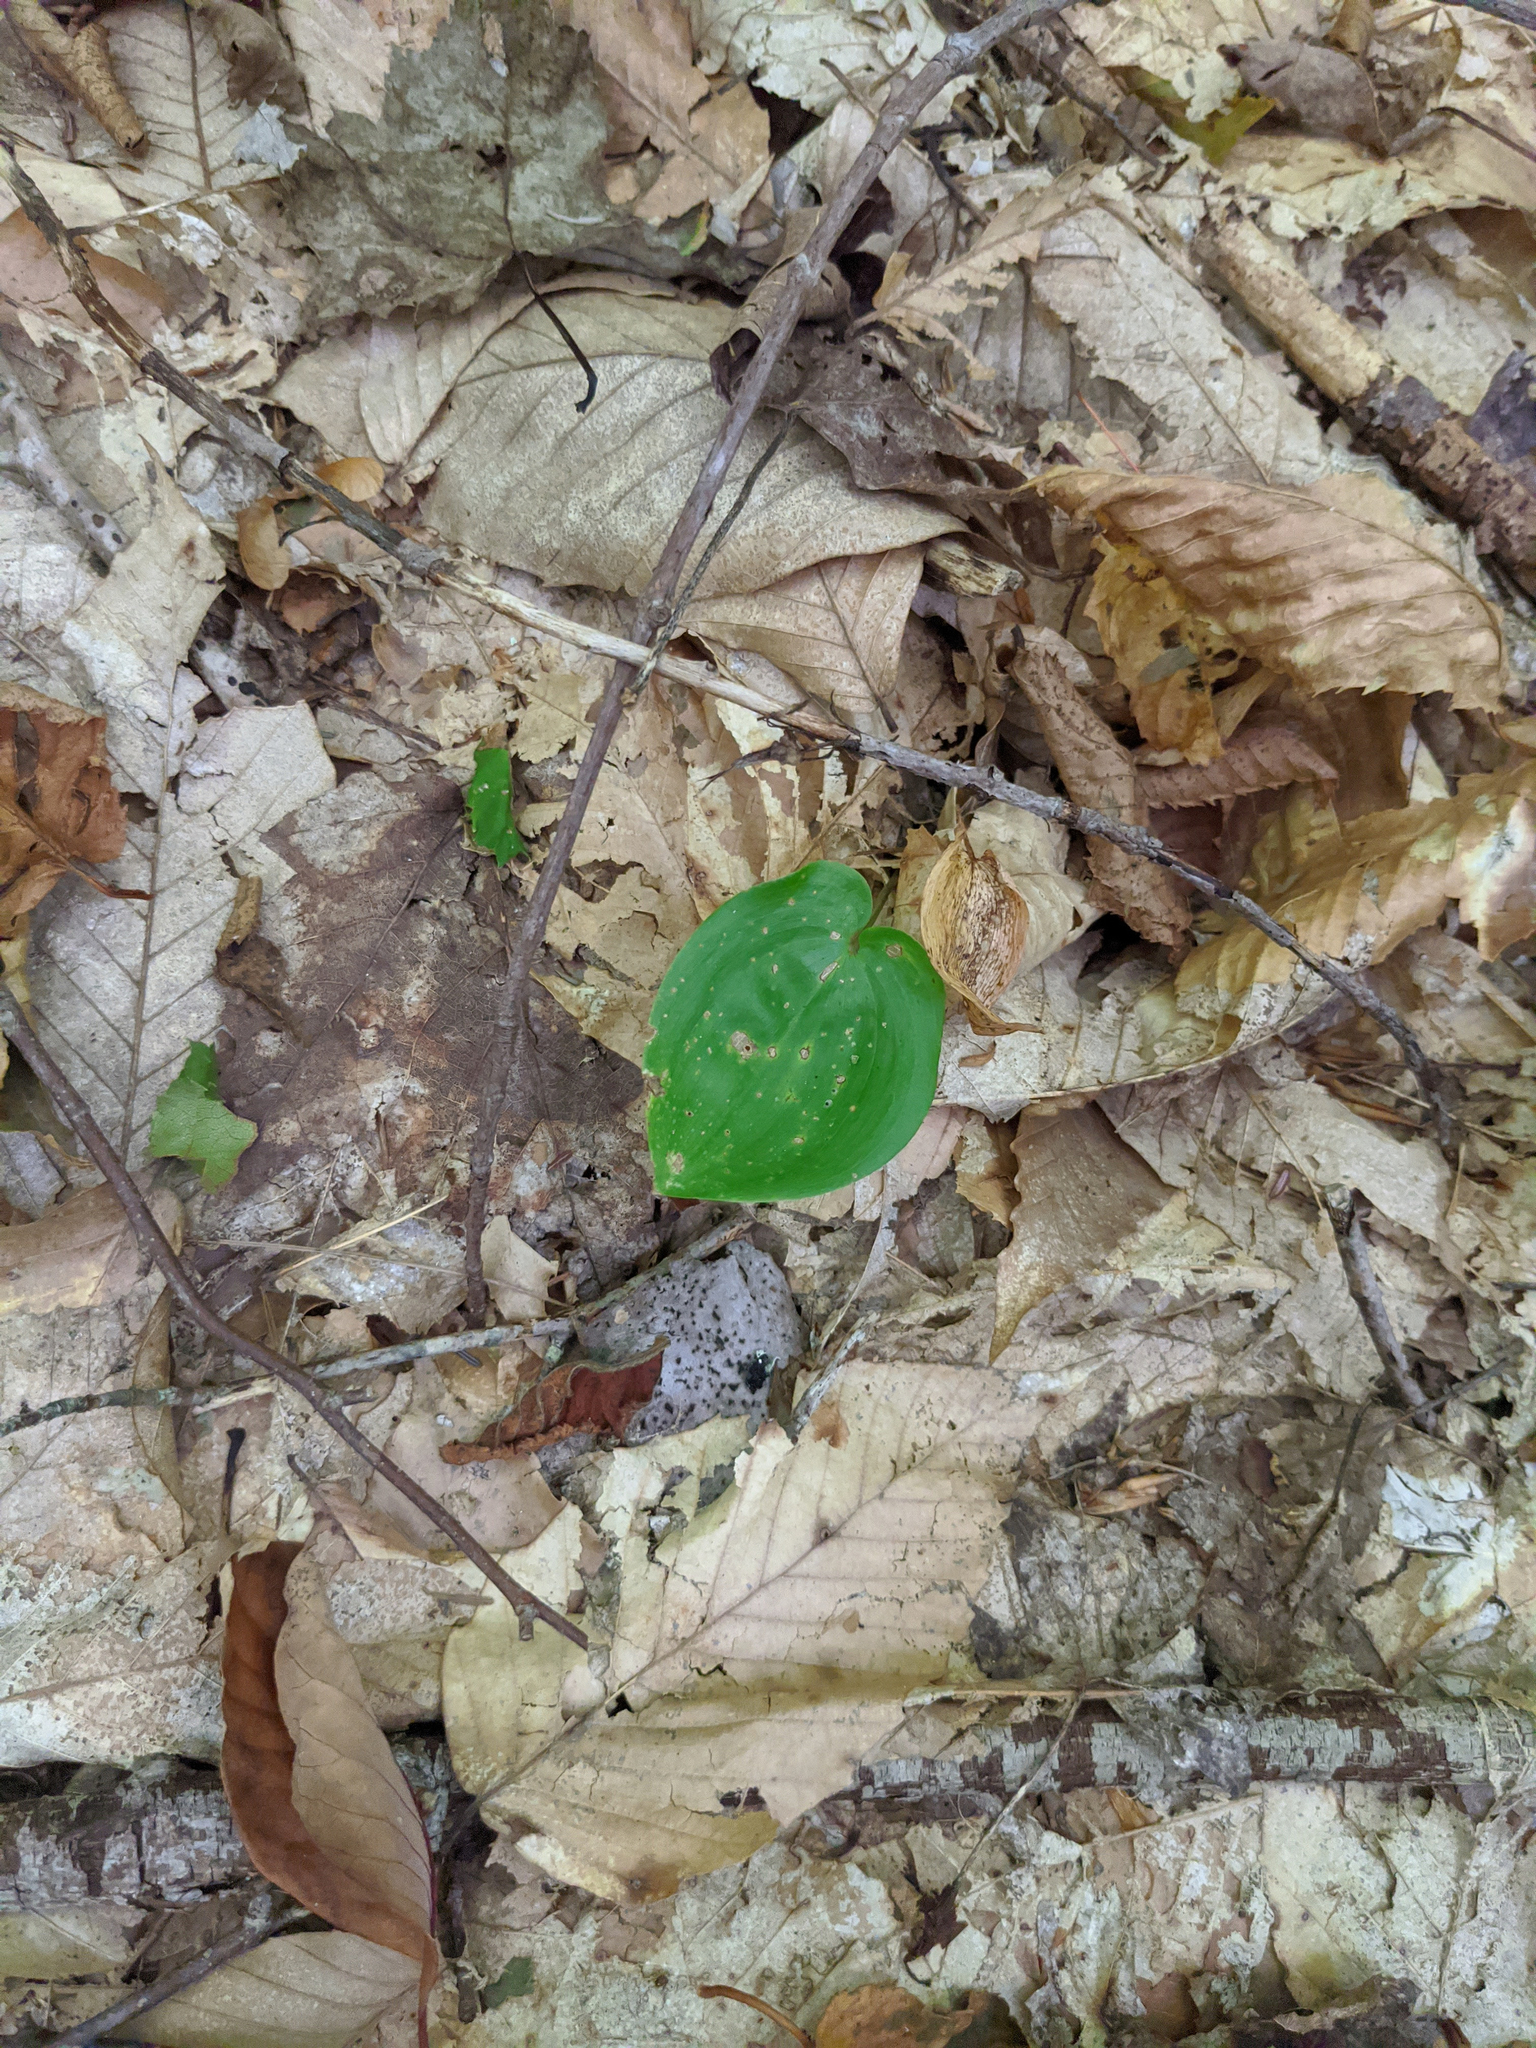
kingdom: Plantae
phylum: Tracheophyta
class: Liliopsida
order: Asparagales
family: Asparagaceae
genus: Maianthemum
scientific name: Maianthemum canadense
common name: False lily-of-the-valley
